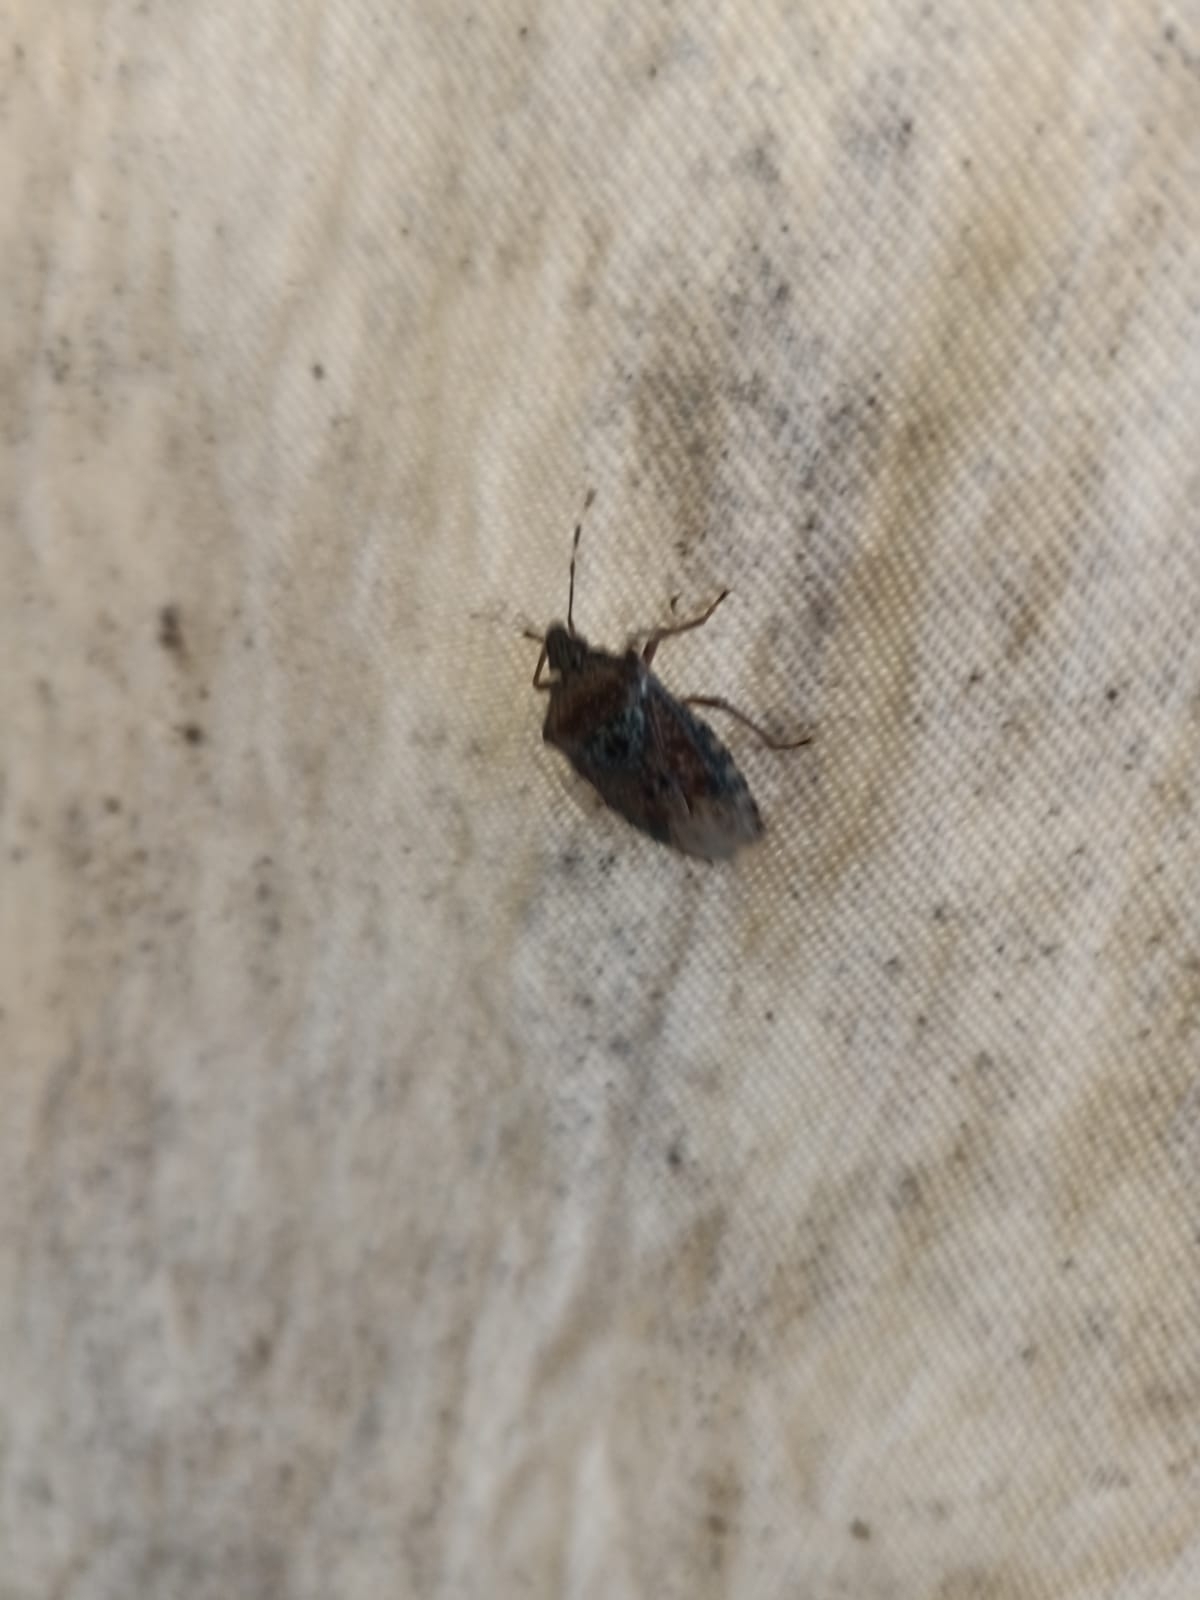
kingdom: Animalia
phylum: Arthropoda
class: Insecta
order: Hemiptera
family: Pentatomidae
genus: Rhaphigaster
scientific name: Rhaphigaster nebulosa
